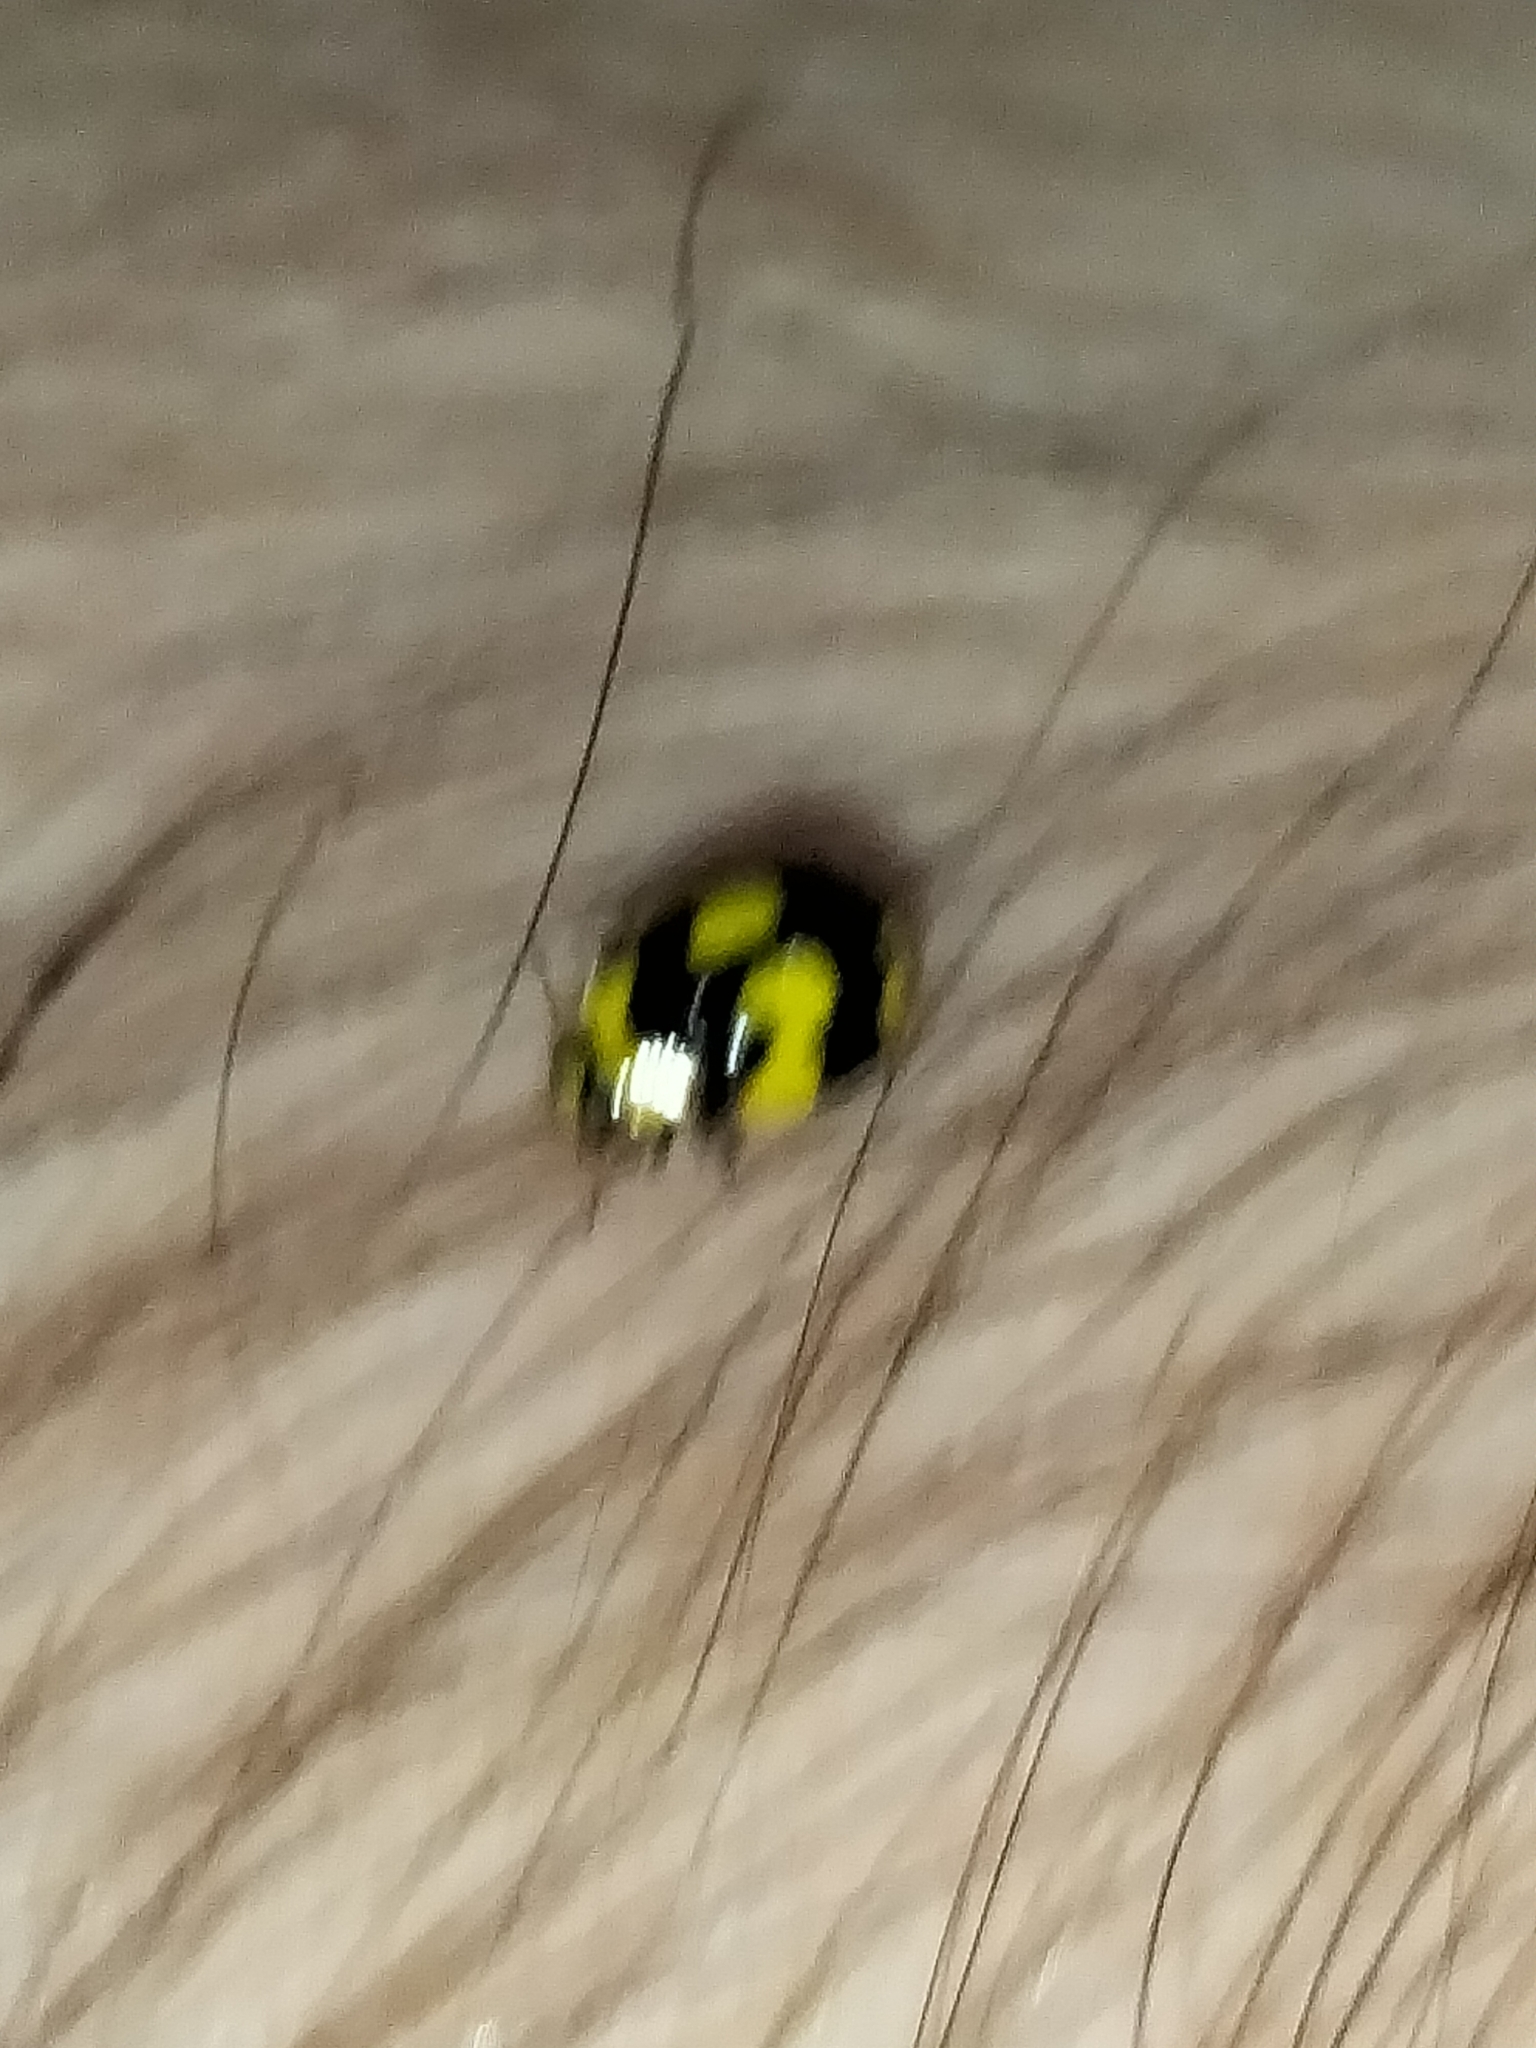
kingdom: Animalia
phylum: Arthropoda
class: Insecta
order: Coleoptera
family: Coccinellidae
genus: Illeis
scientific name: Illeis galbula
